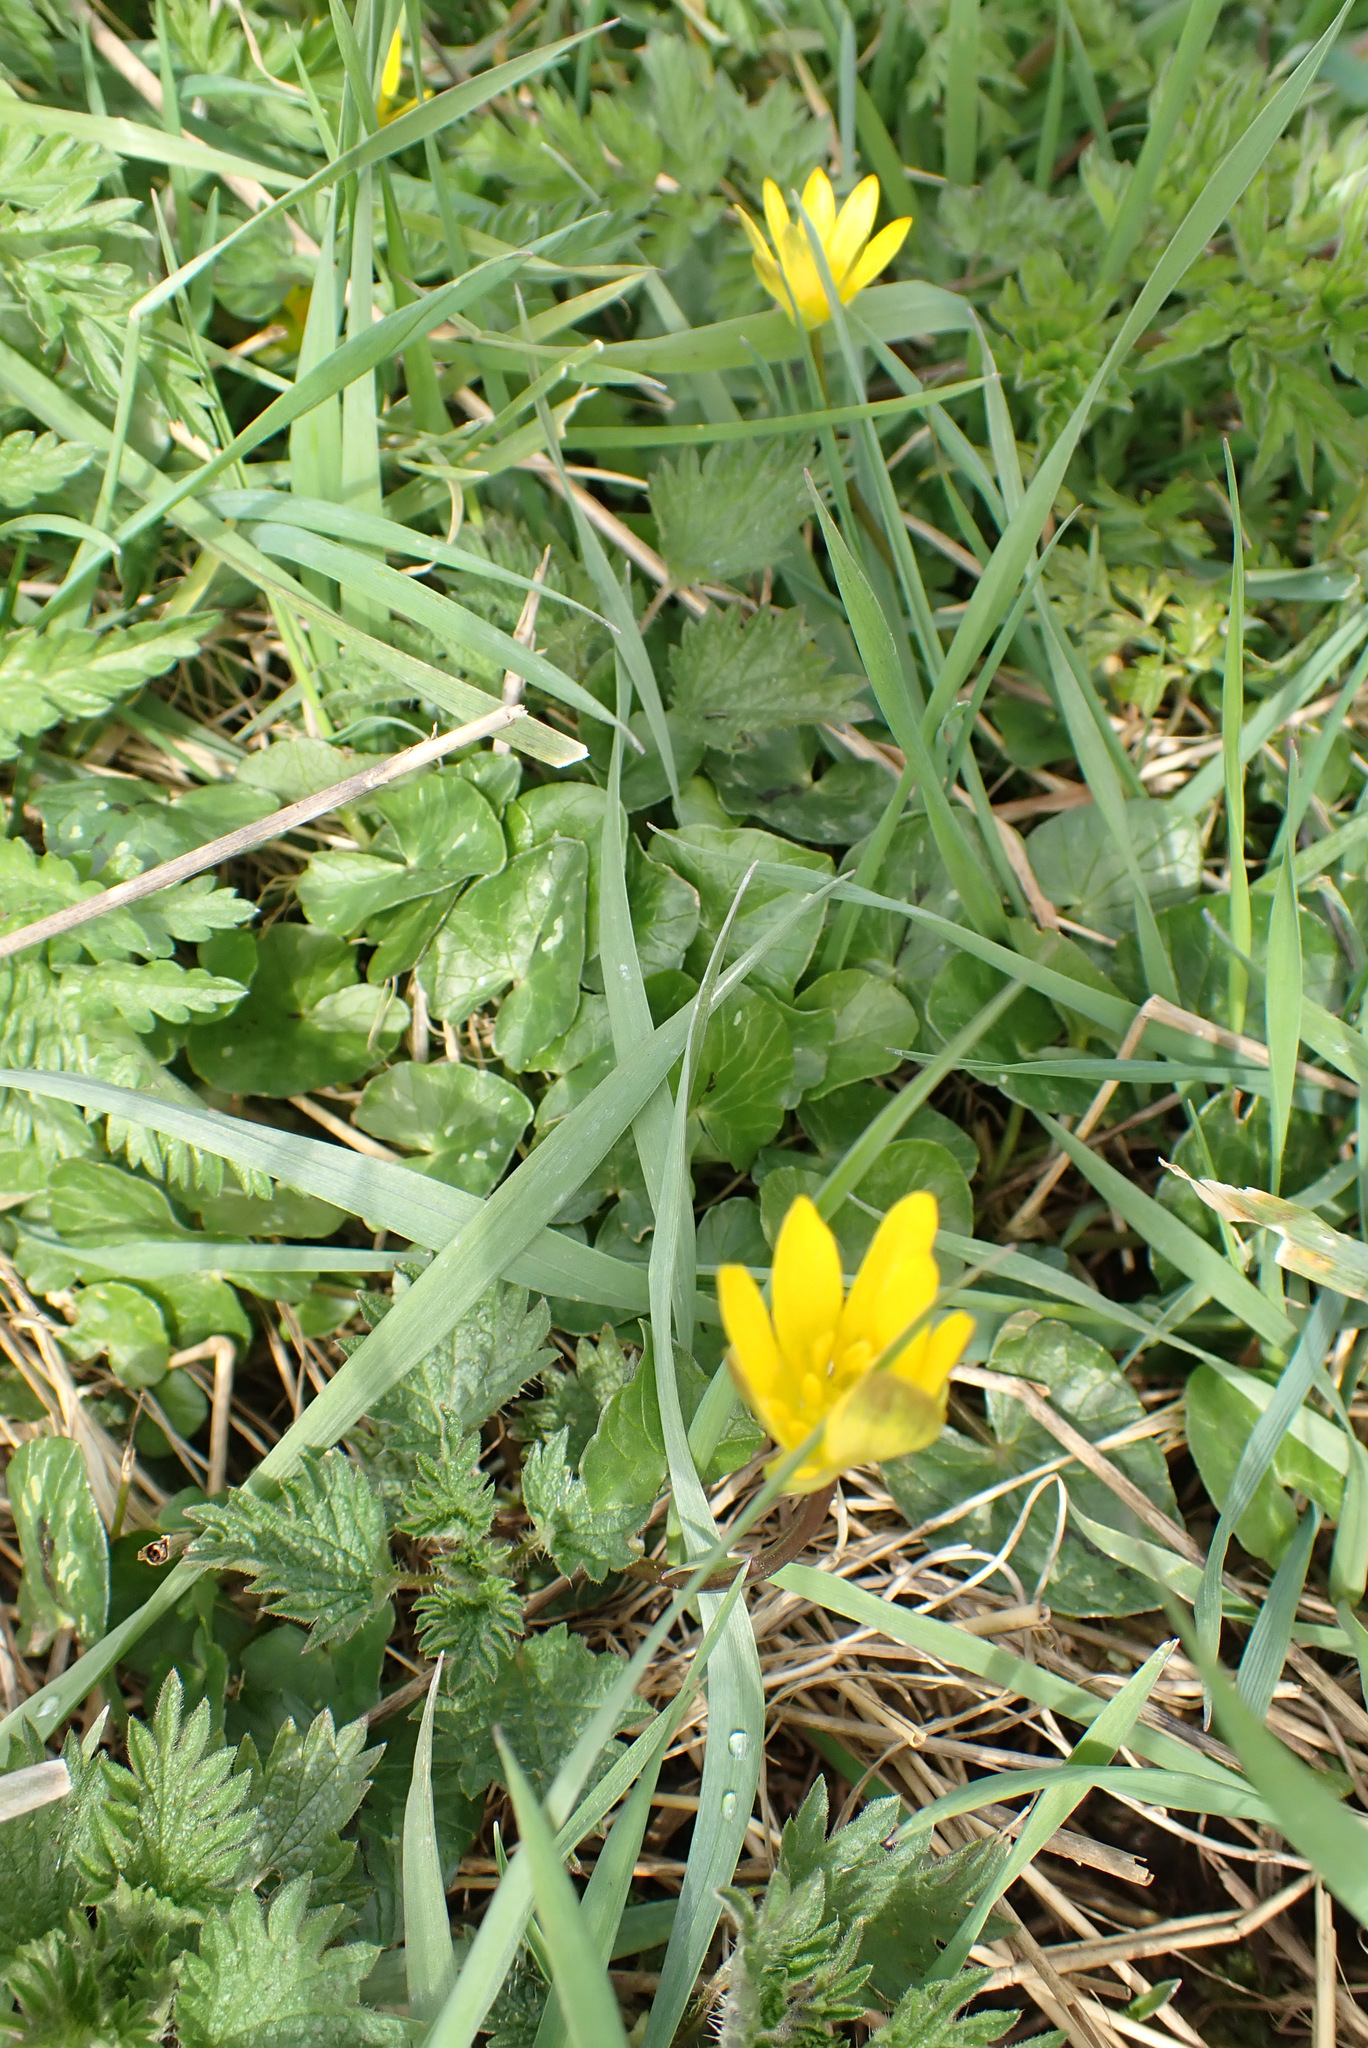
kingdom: Plantae
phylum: Tracheophyta
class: Magnoliopsida
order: Ranunculales
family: Ranunculaceae
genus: Ficaria
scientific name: Ficaria verna
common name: Lesser celandine
